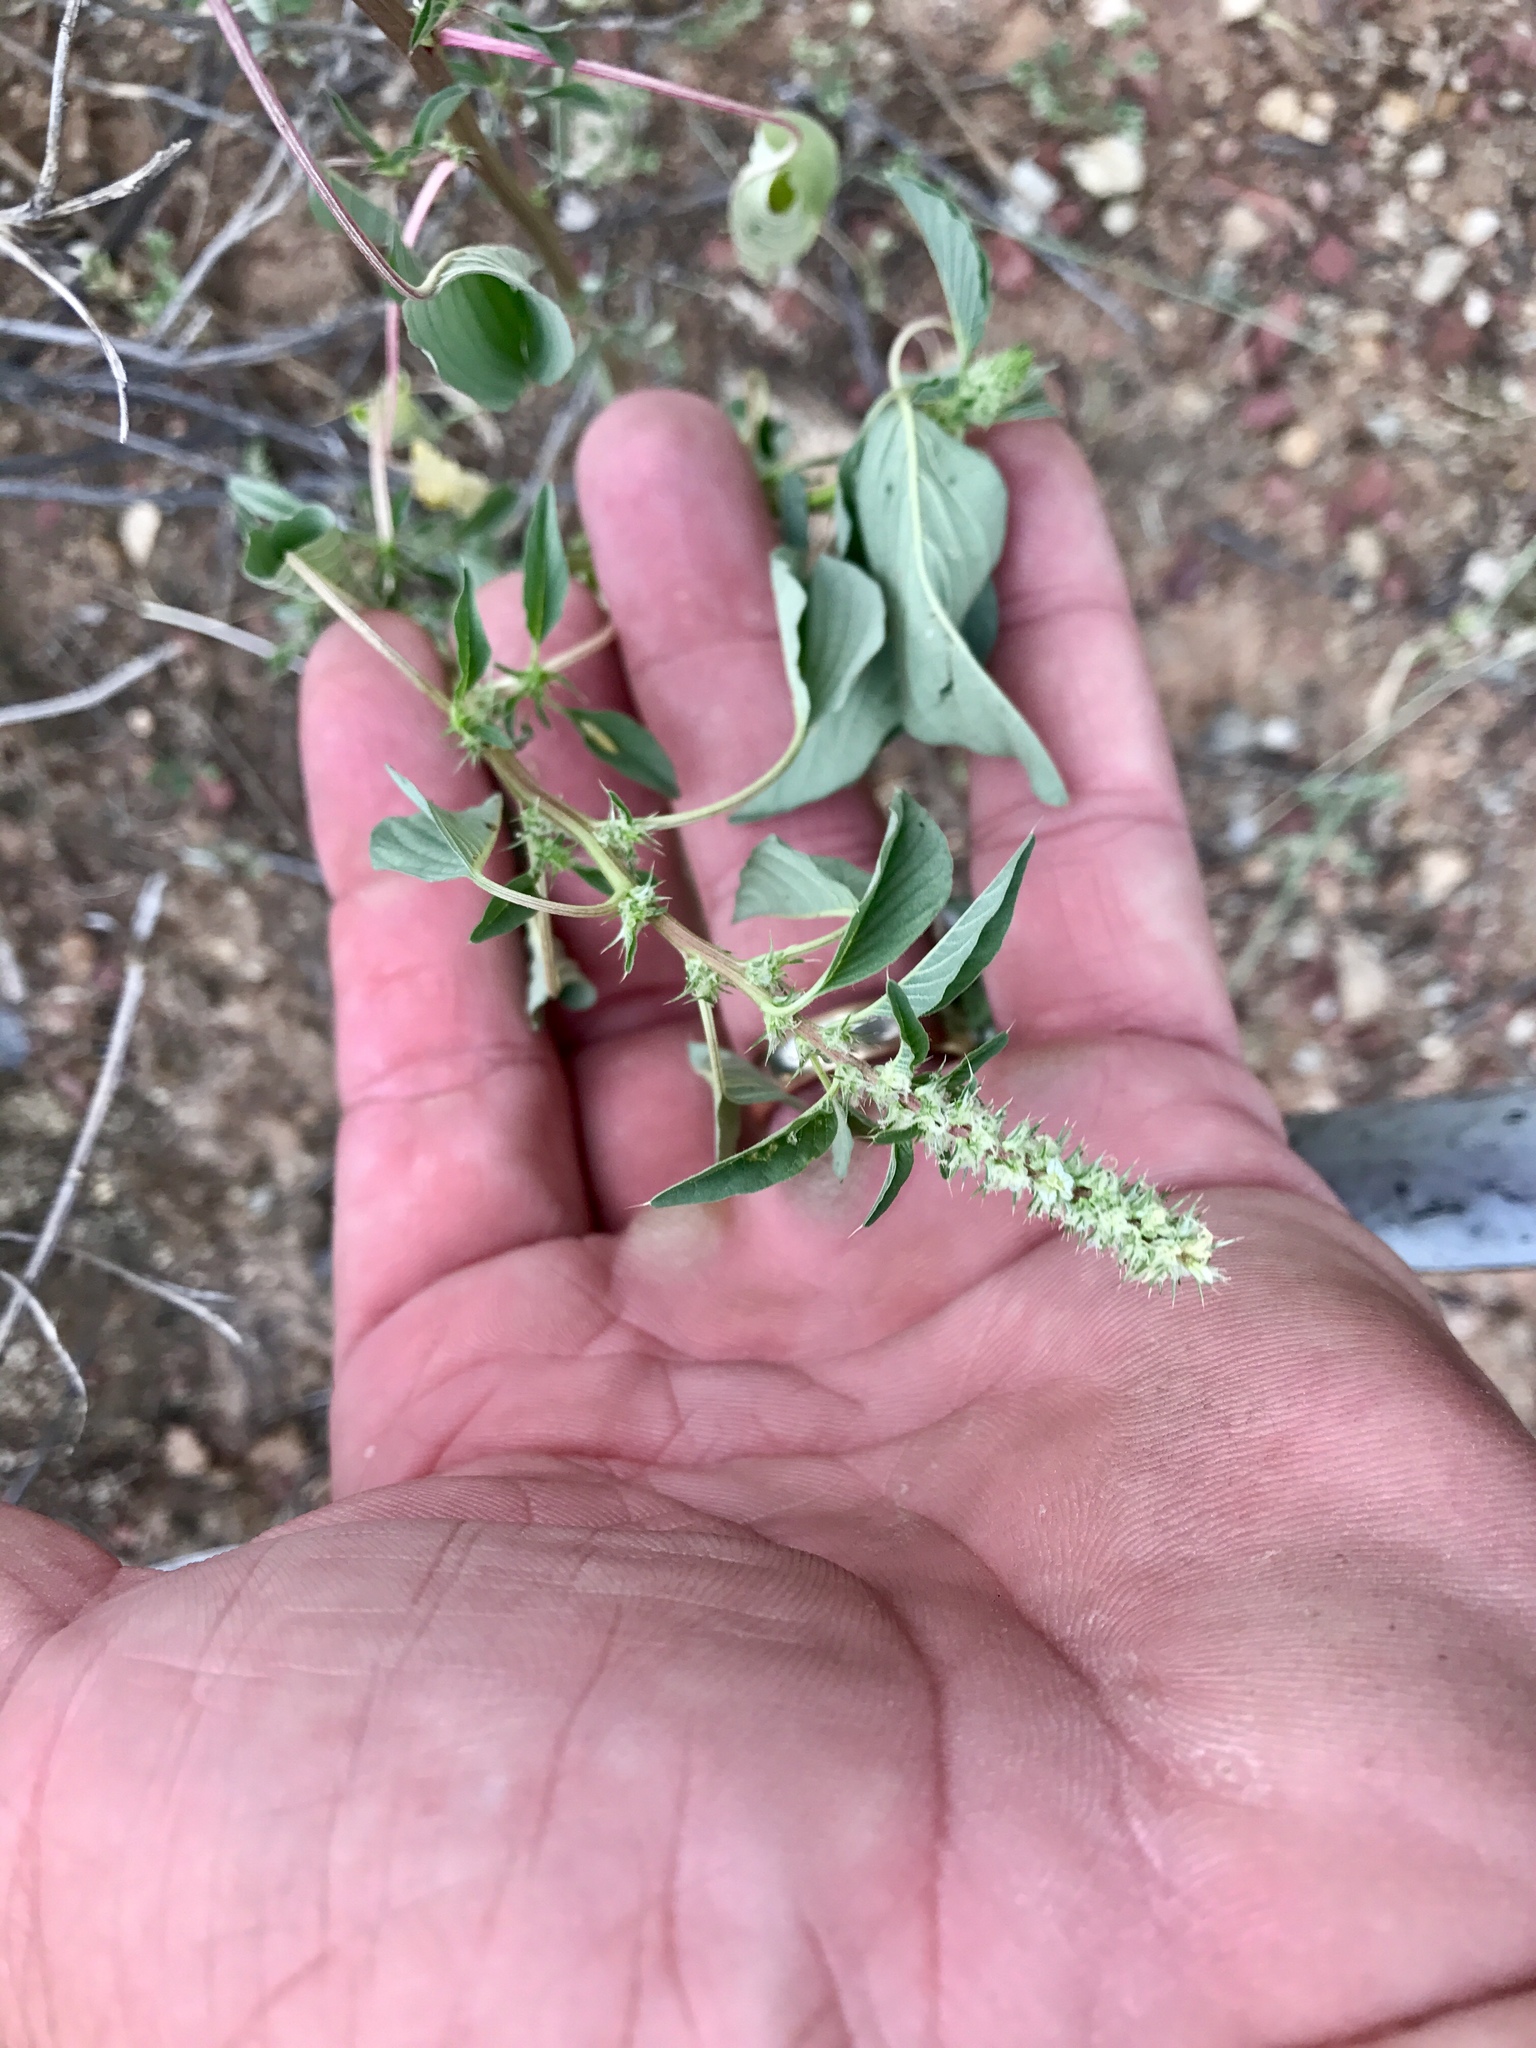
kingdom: Plantae
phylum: Tracheophyta
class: Magnoliopsida
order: Caryophyllales
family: Amaranthaceae
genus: Amaranthus
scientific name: Amaranthus palmeri
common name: Dioecious amaranth
